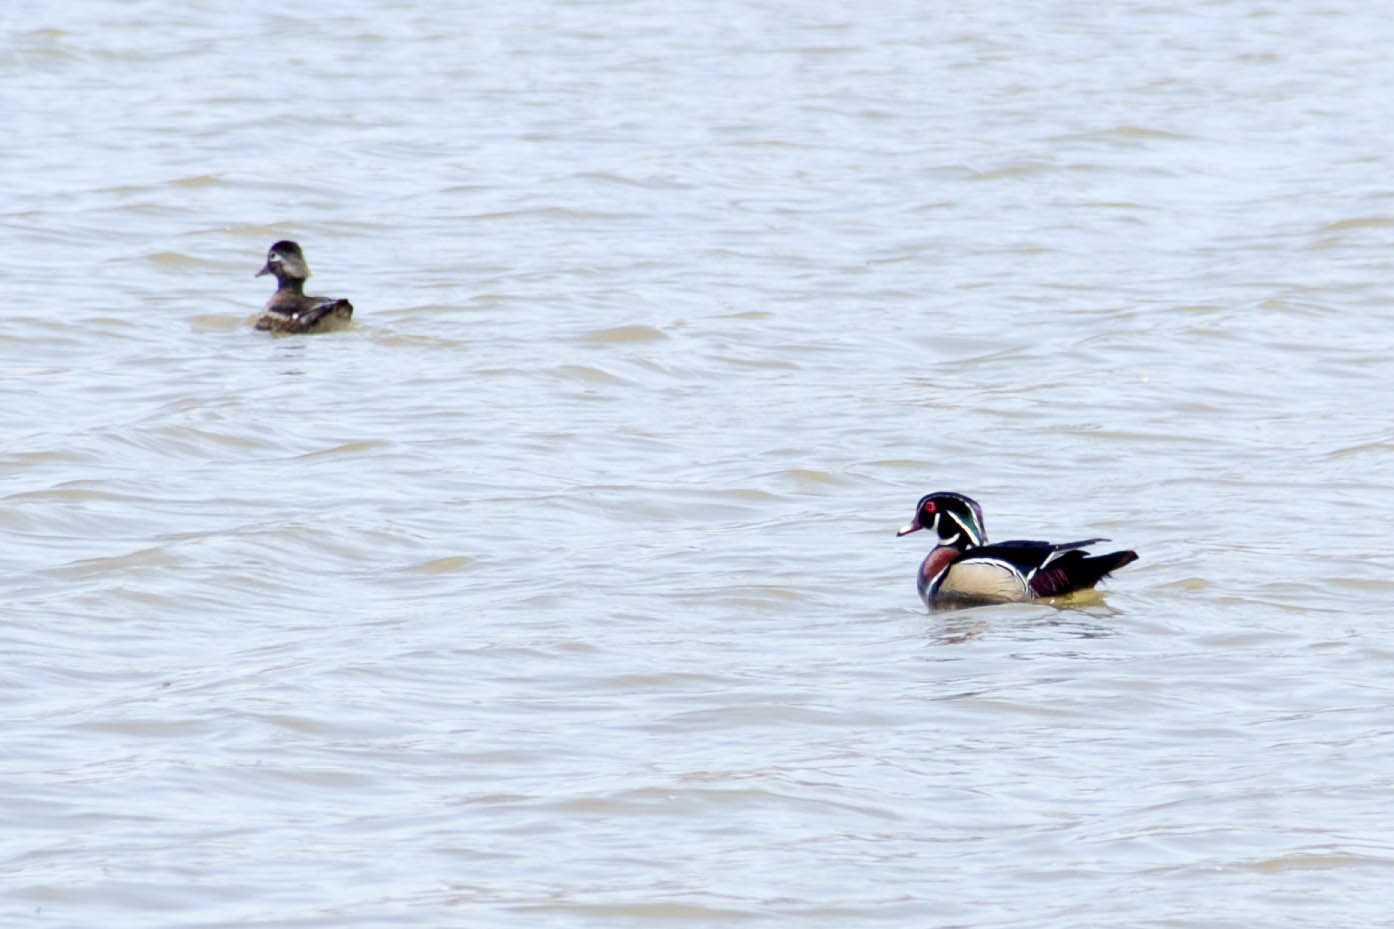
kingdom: Animalia
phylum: Chordata
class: Aves
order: Anseriformes
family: Anatidae
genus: Aix
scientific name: Aix sponsa
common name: Wood duck
